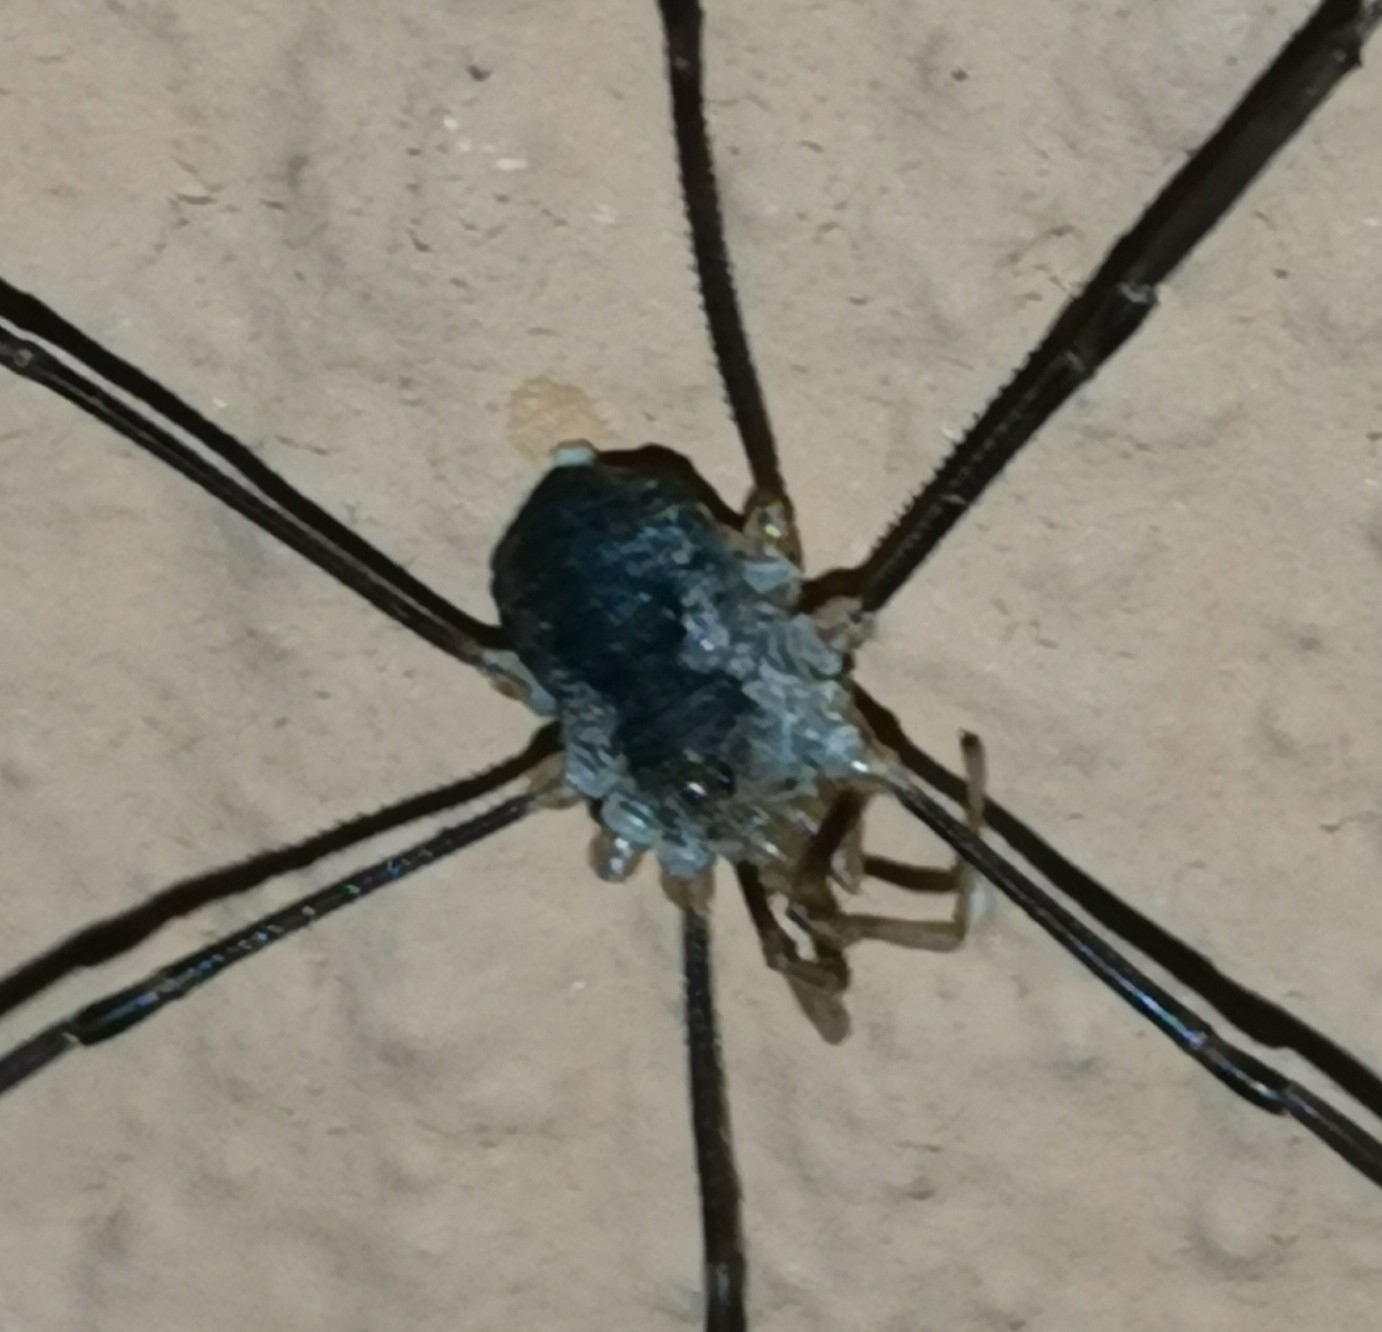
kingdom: Animalia
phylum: Arthropoda
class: Arachnida
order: Opiliones
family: Phalangiidae
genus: Phalangium
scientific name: Phalangium opilio
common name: Daddy longleg
